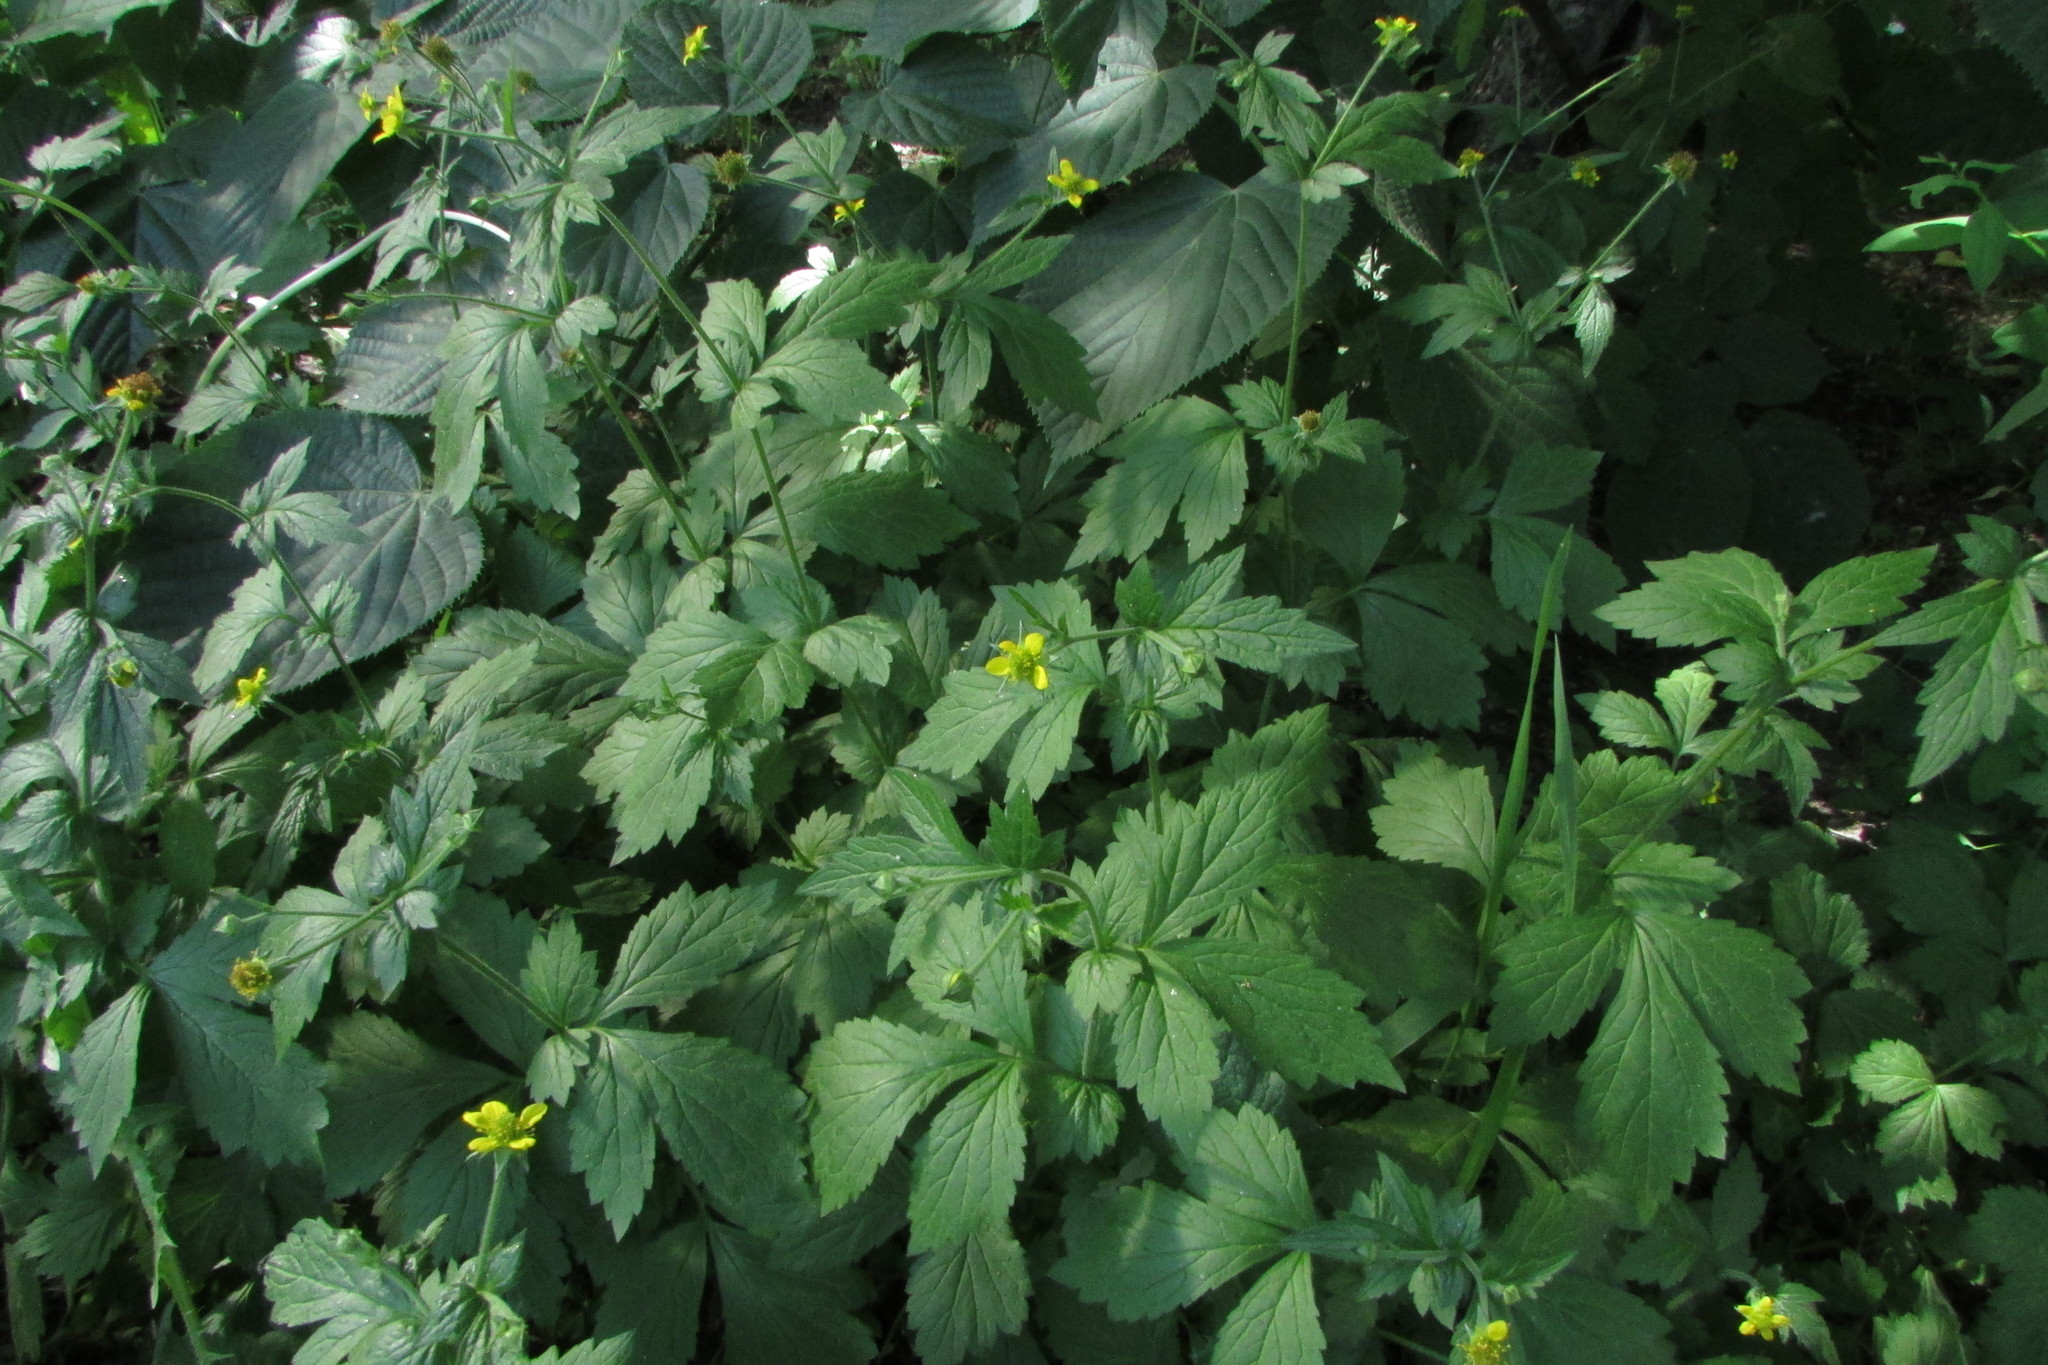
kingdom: Plantae
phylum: Tracheophyta
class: Magnoliopsida
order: Rosales
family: Rosaceae
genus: Geum
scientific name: Geum urbanum
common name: Wood avens
